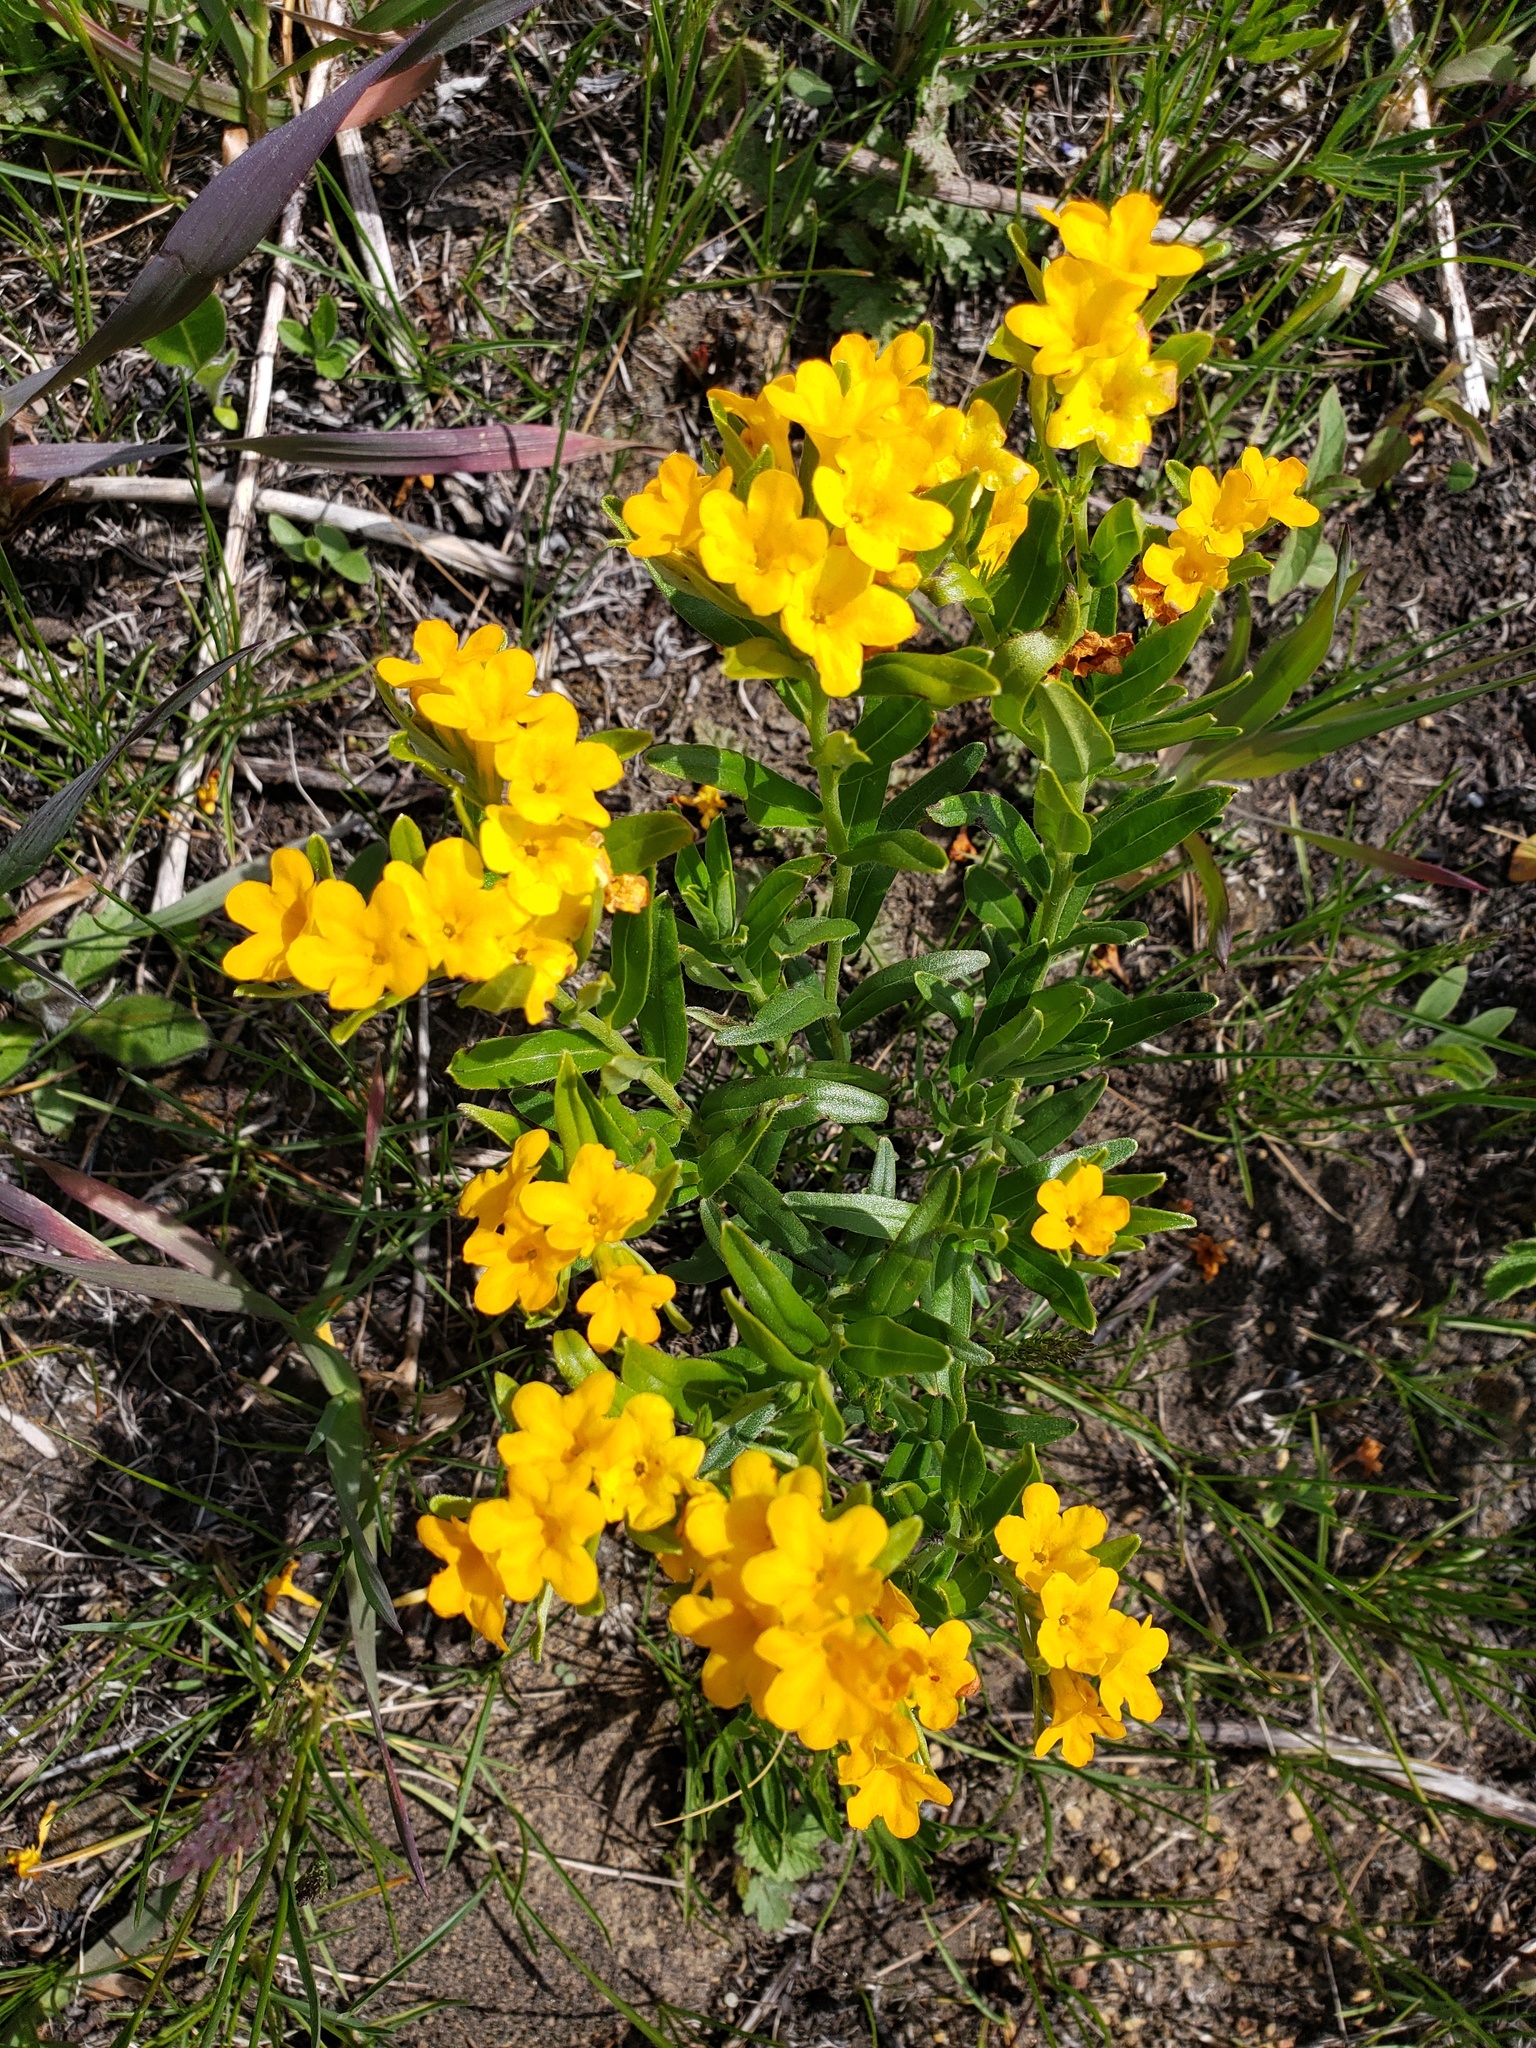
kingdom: Plantae
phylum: Tracheophyta
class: Magnoliopsida
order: Boraginales
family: Boraginaceae
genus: Lithospermum
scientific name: Lithospermum canescens
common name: Hoary puccoon
